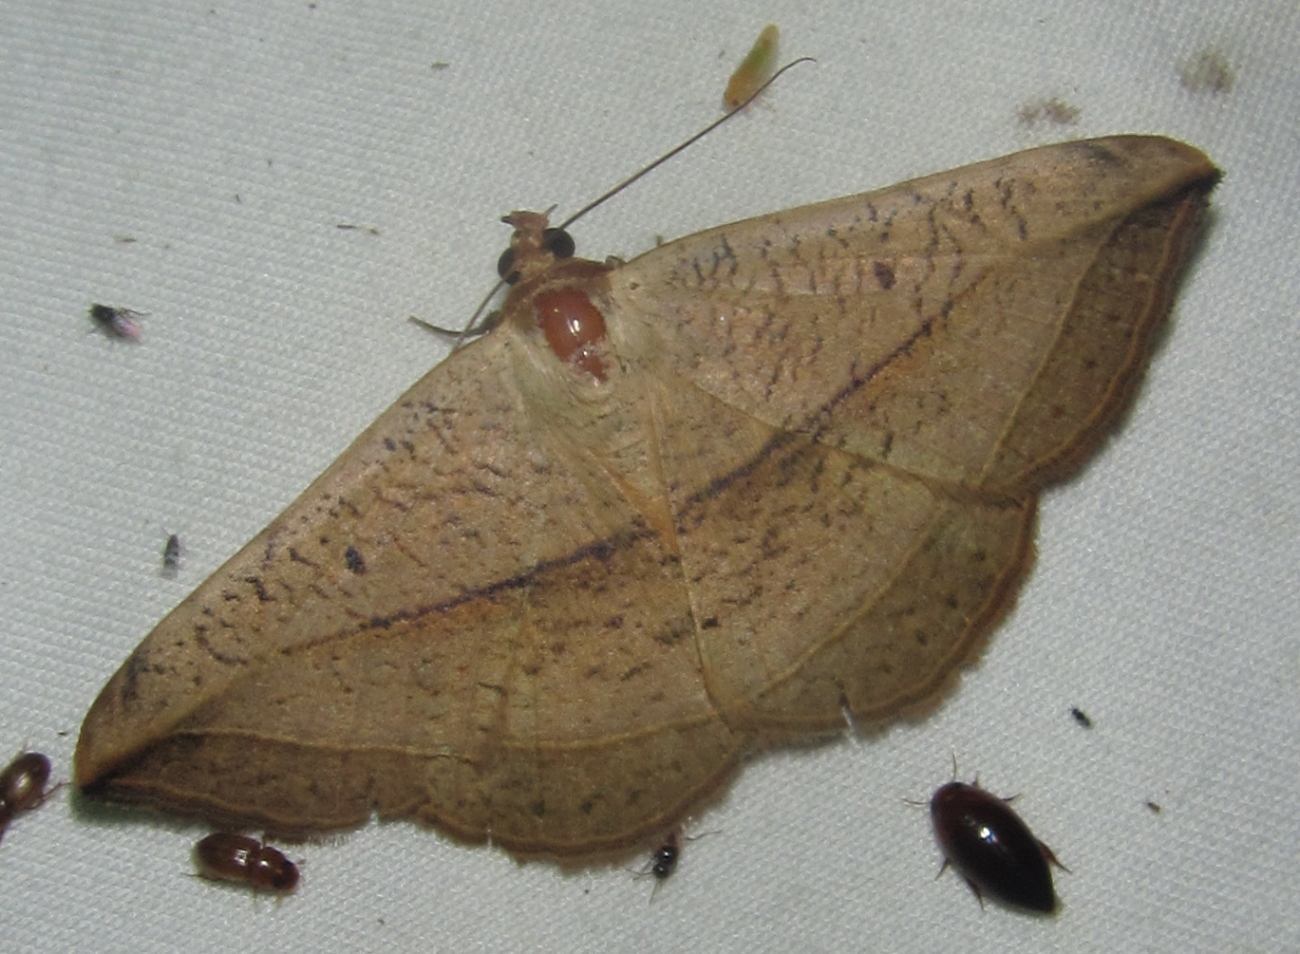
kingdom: Animalia
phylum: Arthropoda
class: Insecta
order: Lepidoptera
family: Erebidae
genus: Entomogramma
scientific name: Entomogramma pardus
